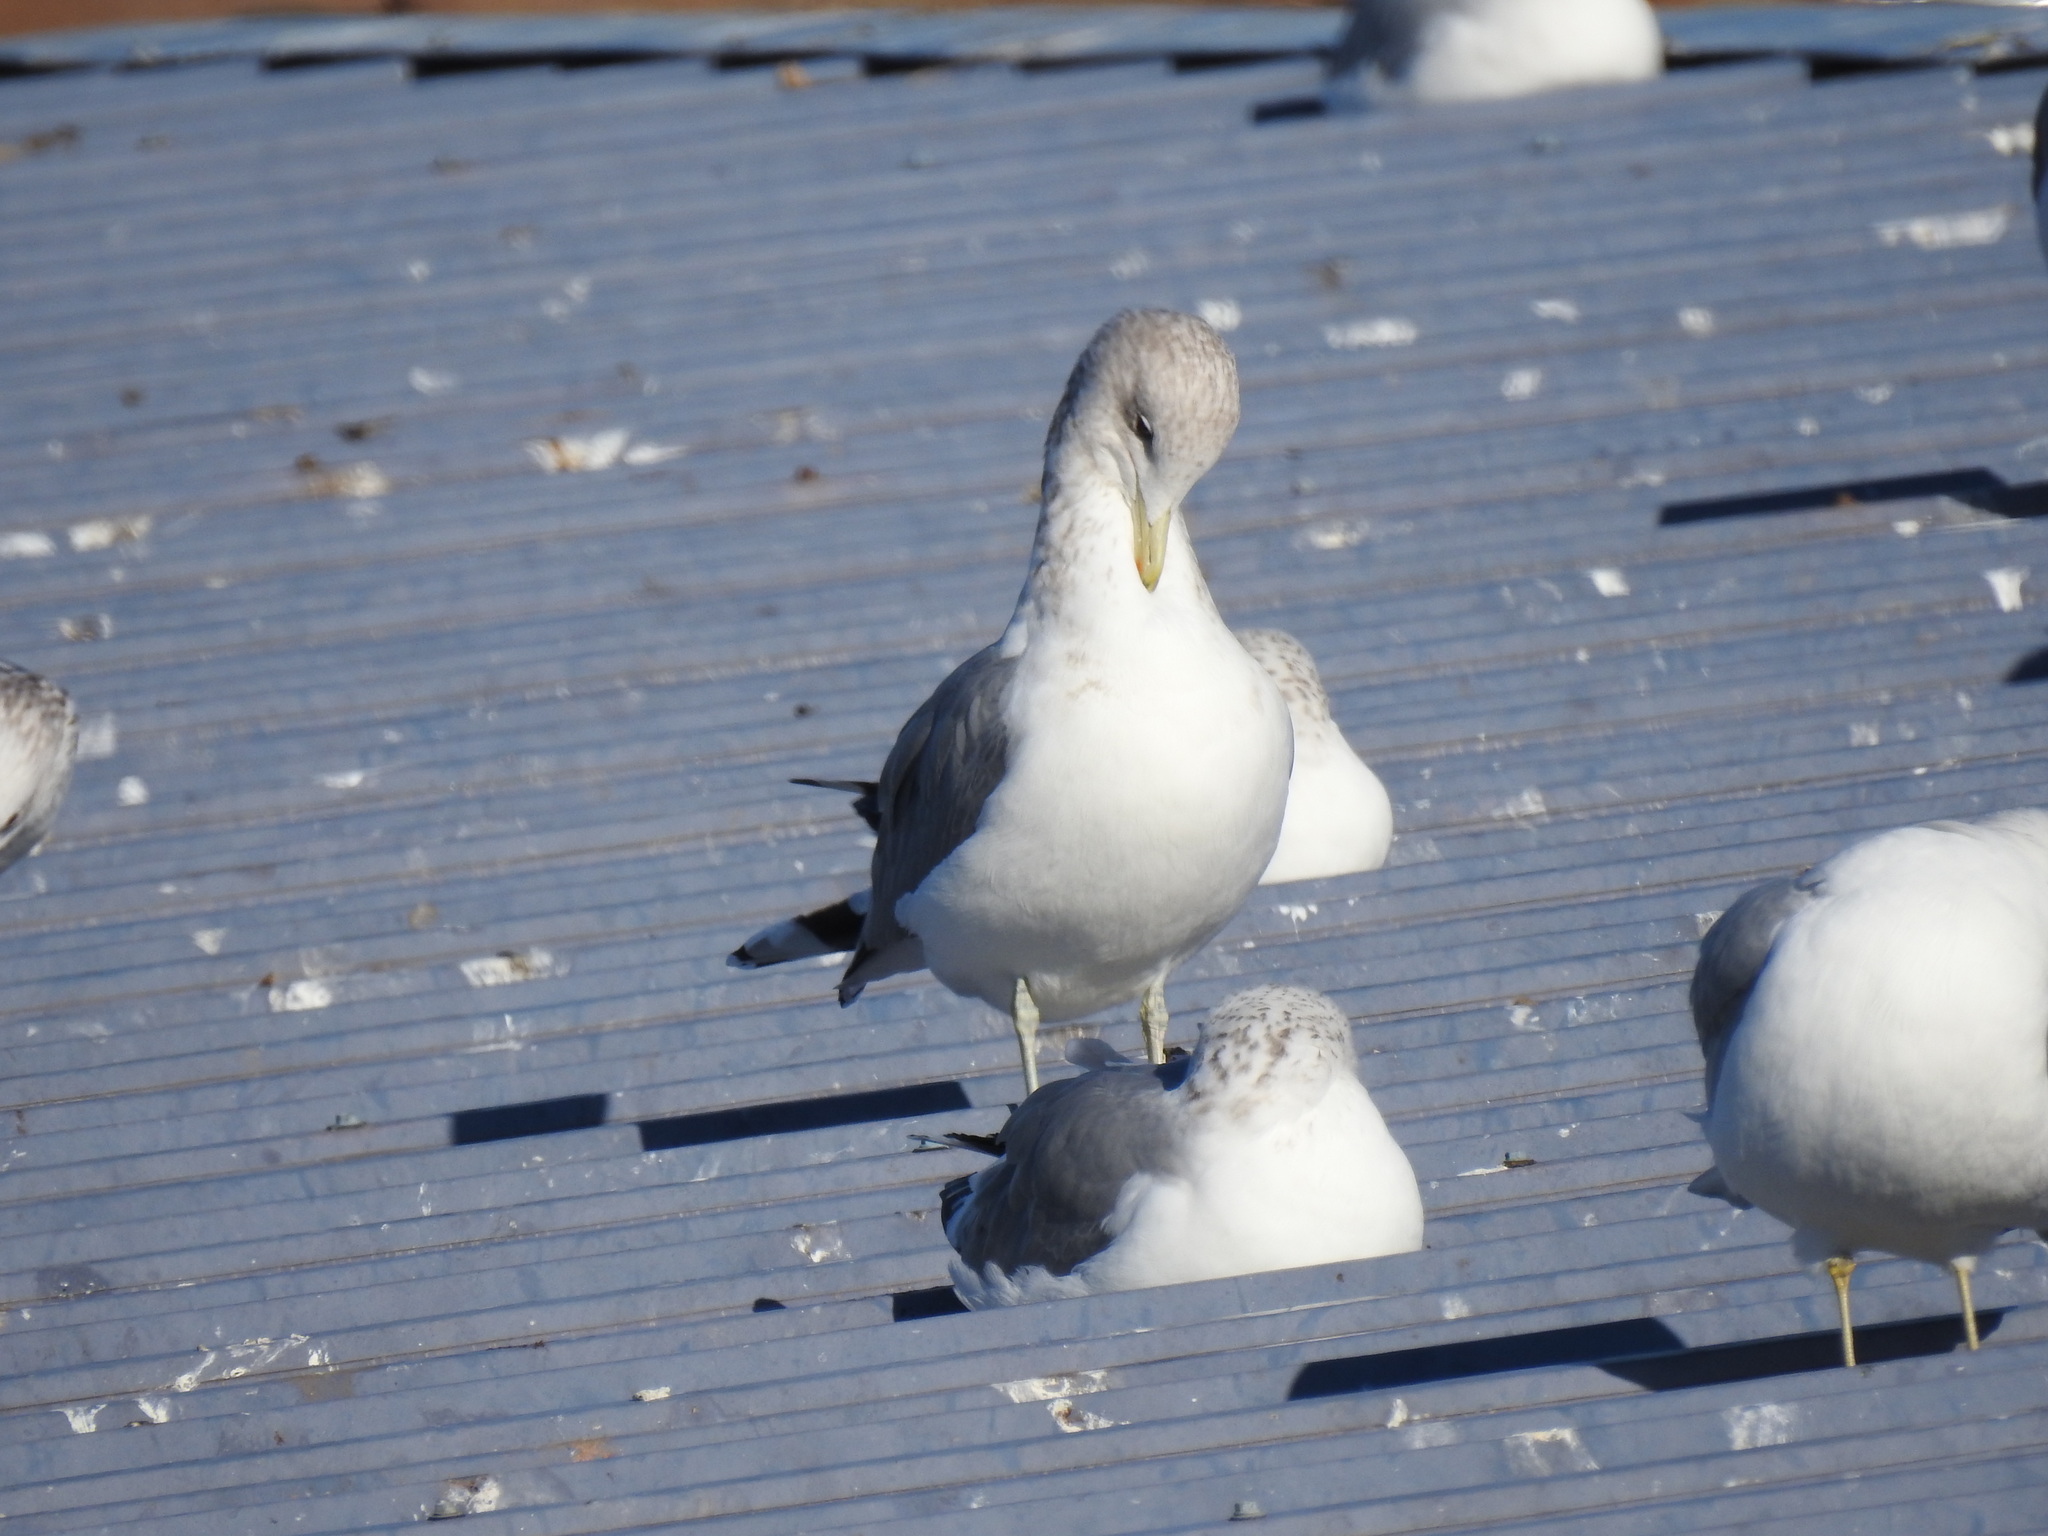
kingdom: Animalia
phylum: Chordata
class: Aves
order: Charadriiformes
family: Laridae
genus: Larus
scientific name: Larus californicus
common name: California gull
